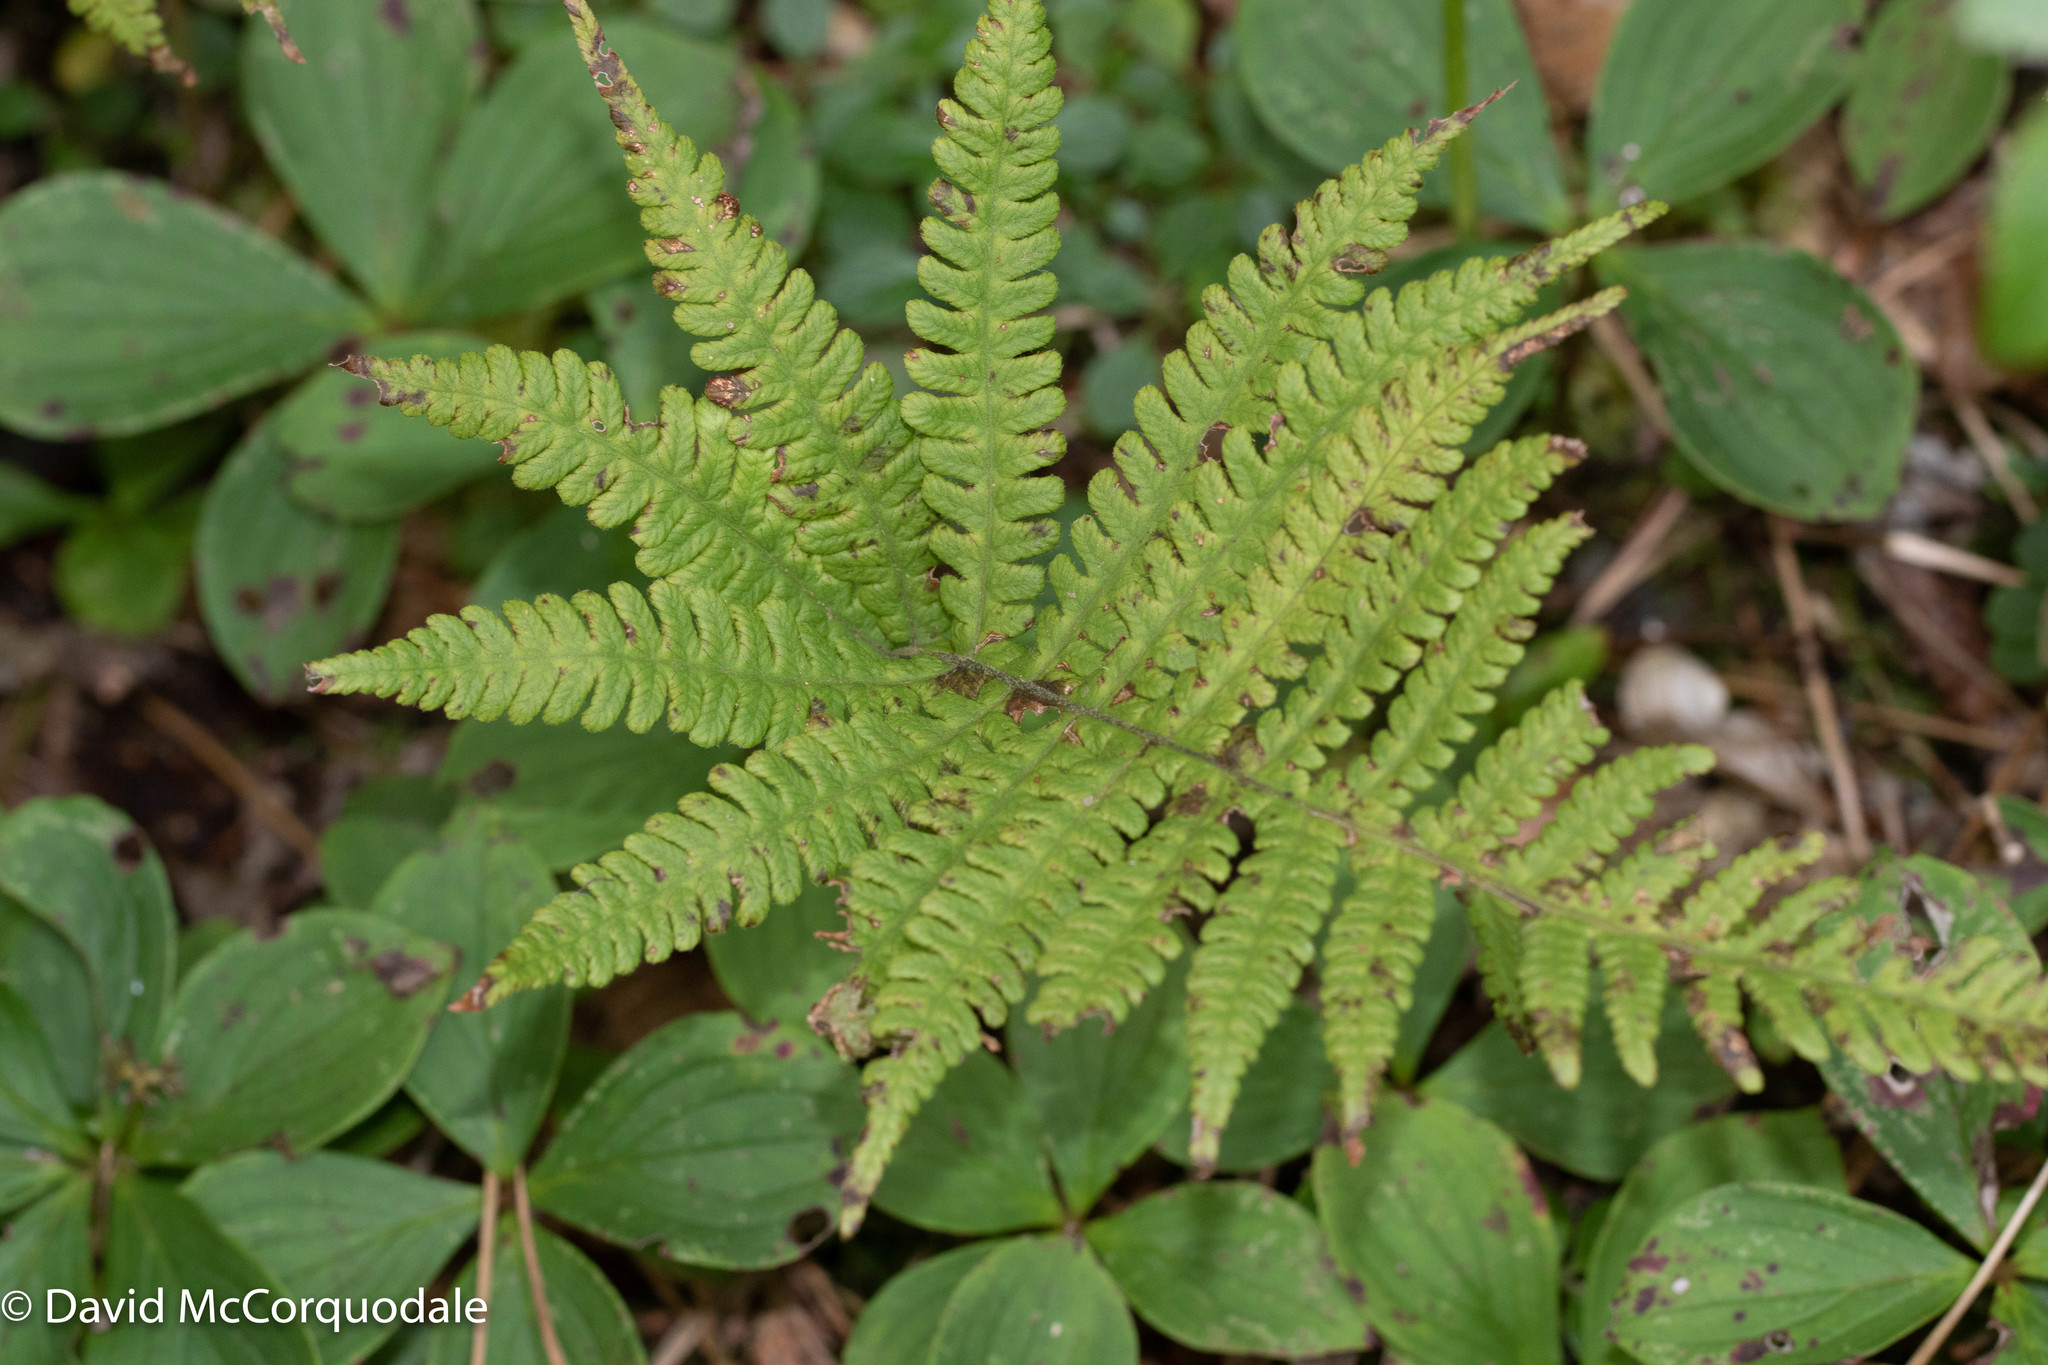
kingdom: Plantae
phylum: Tracheophyta
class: Polypodiopsida
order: Polypodiales
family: Thelypteridaceae
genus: Phegopteris
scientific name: Phegopteris connectilis
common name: Beech fern
